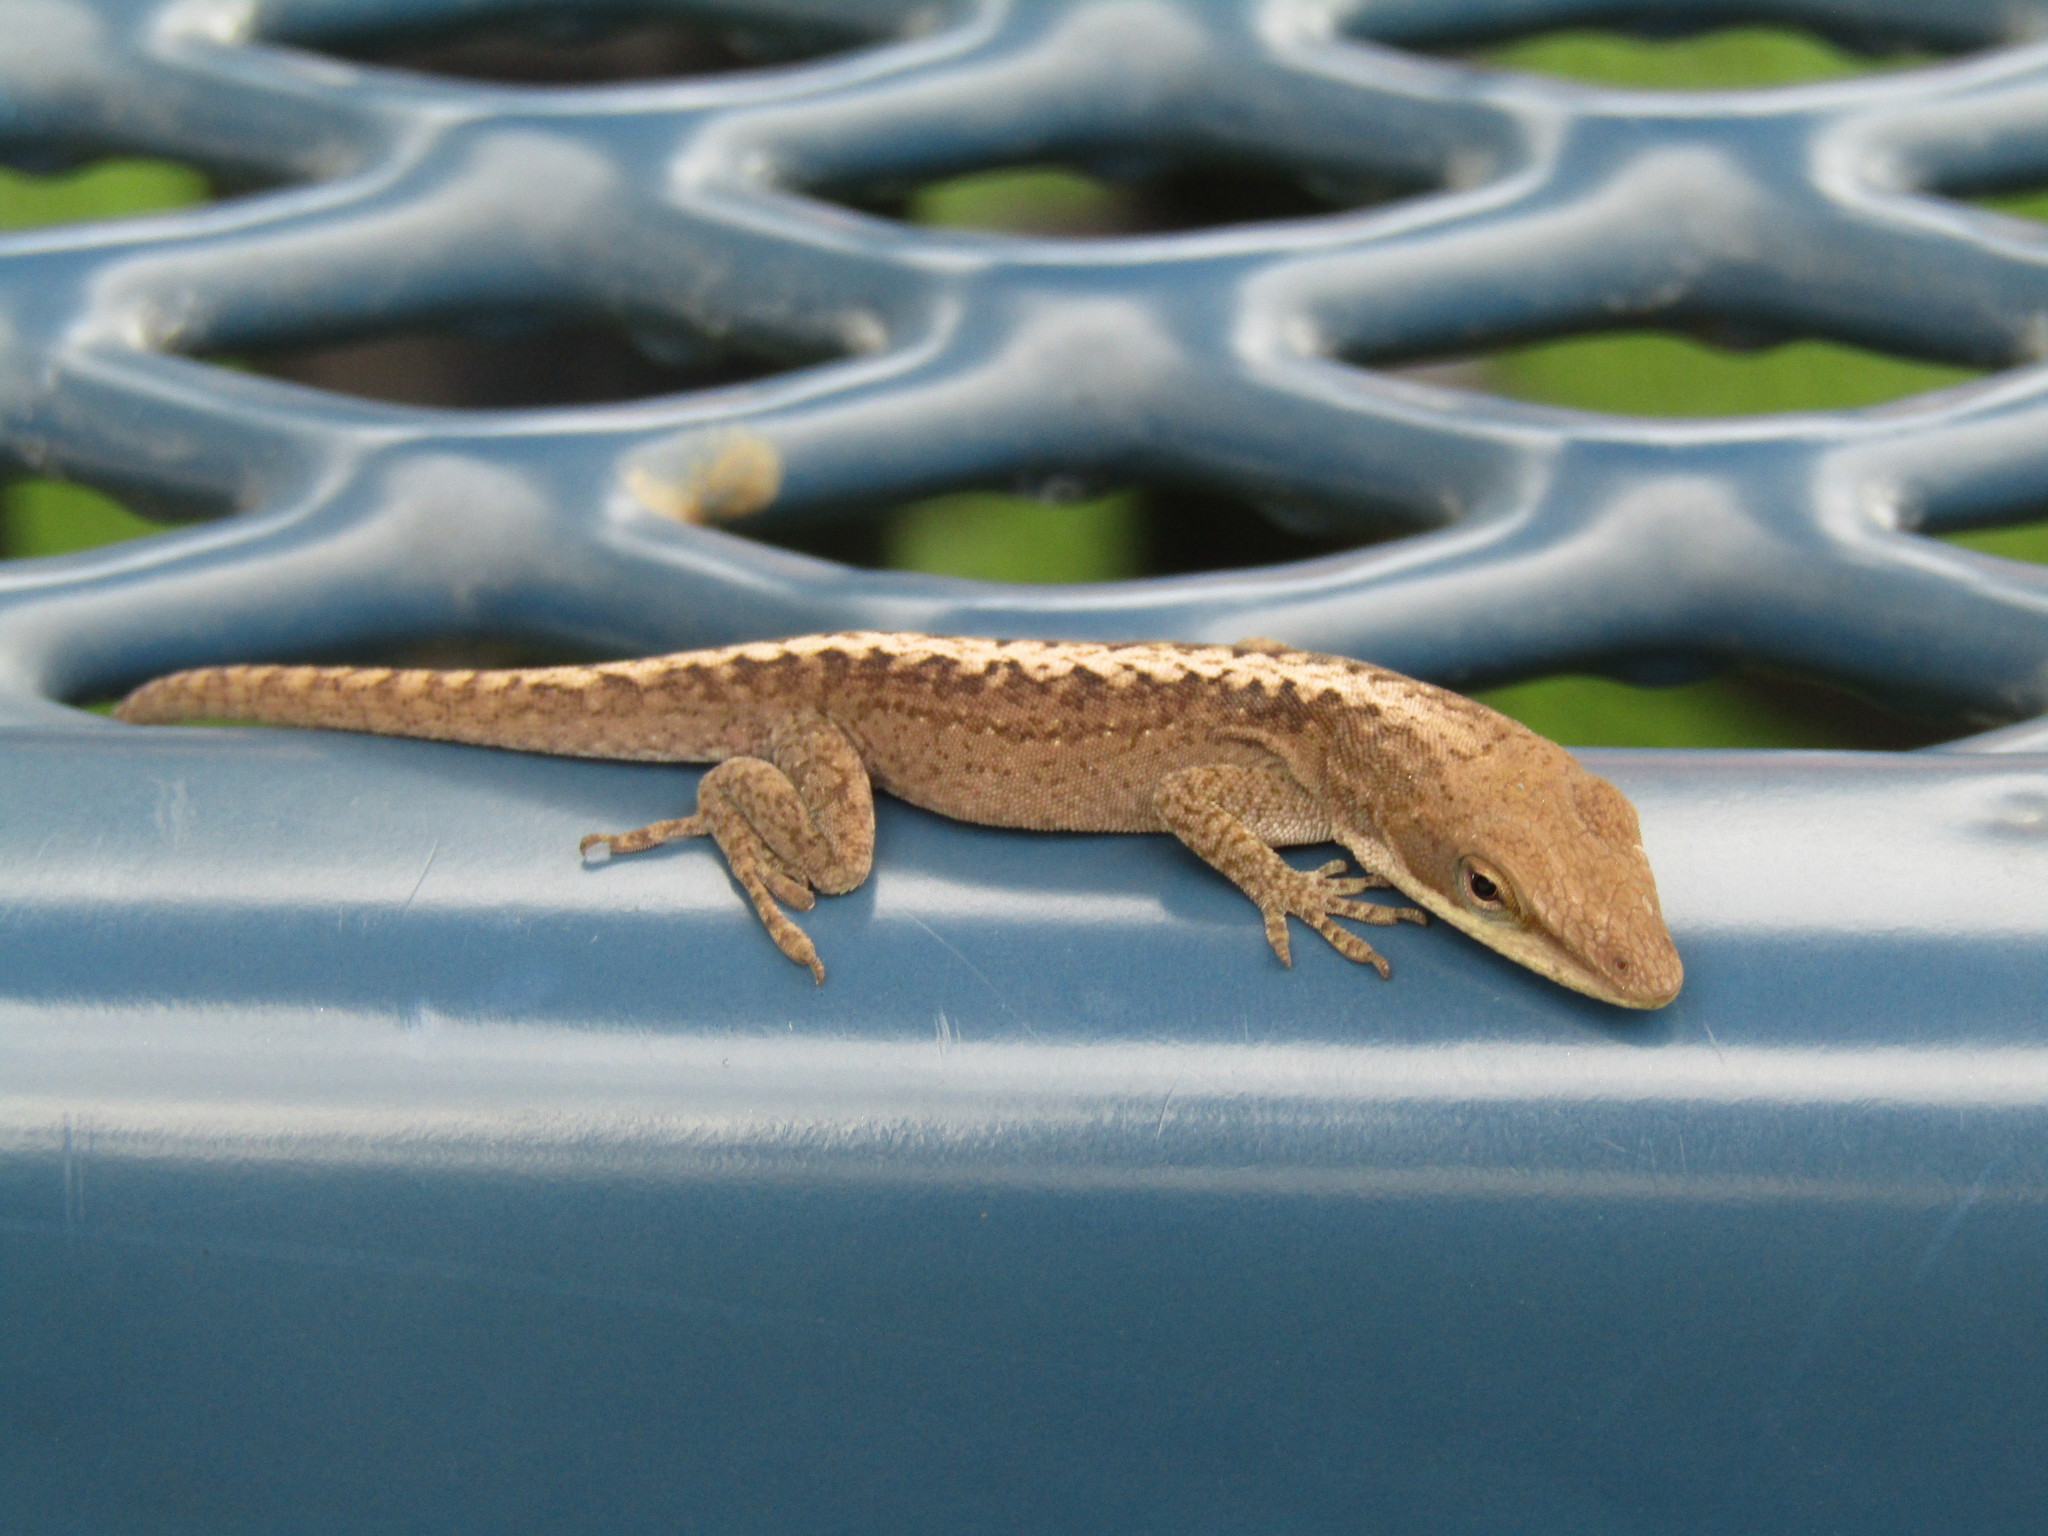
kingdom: Animalia
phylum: Chordata
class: Squamata
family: Dactyloidae
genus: Anolis
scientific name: Anolis carolinensis
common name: Green anole
